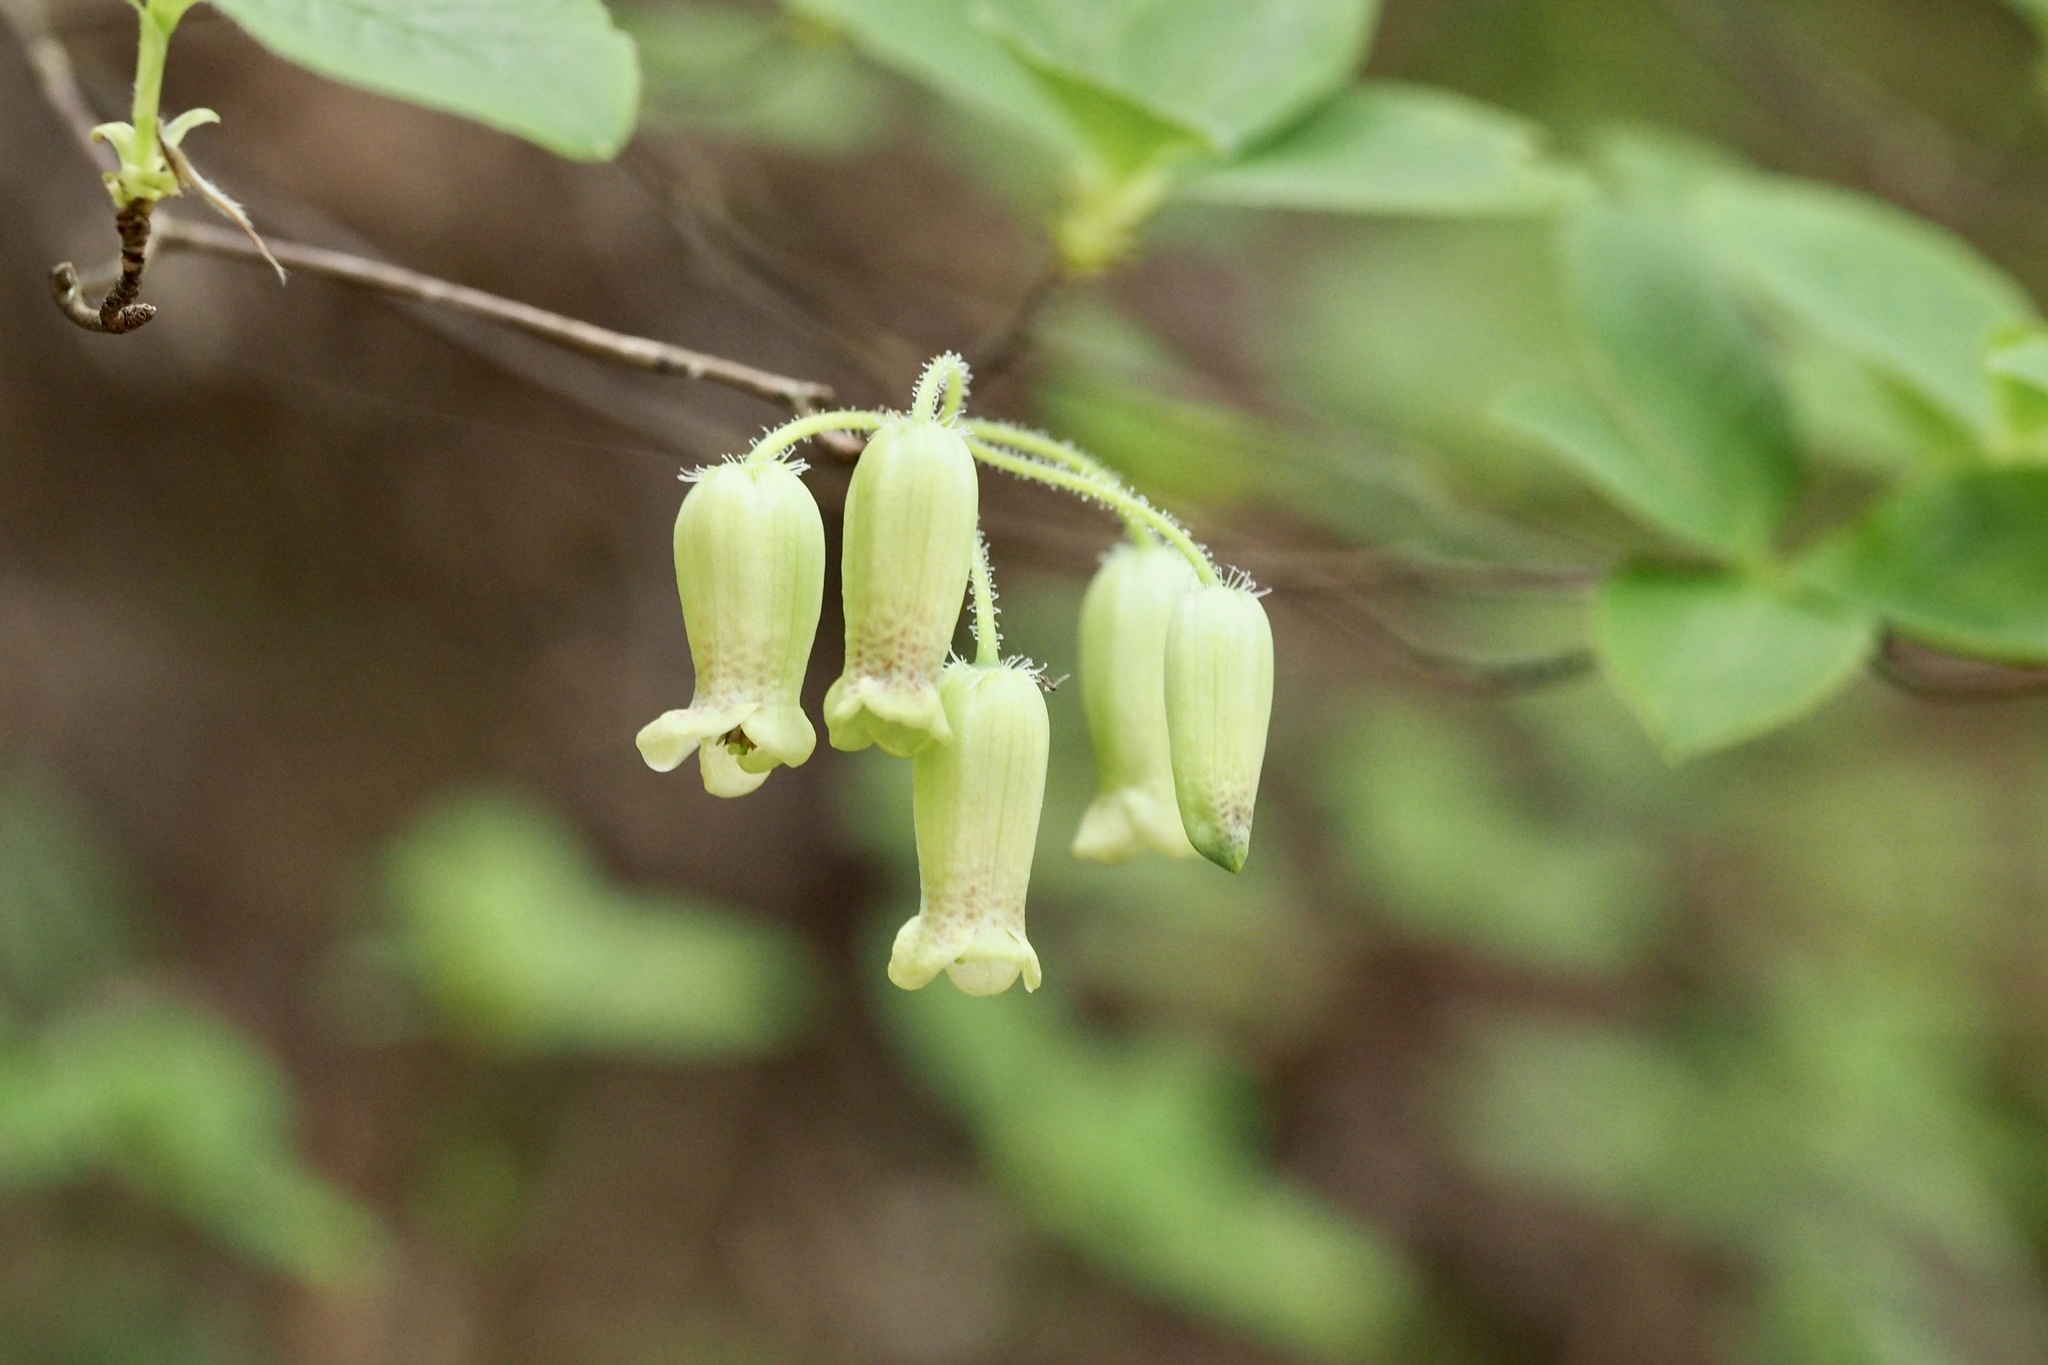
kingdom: Plantae
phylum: Tracheophyta
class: Magnoliopsida
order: Ericales
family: Ericaceae
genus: Rhododendron
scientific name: Rhododendron benhallii
